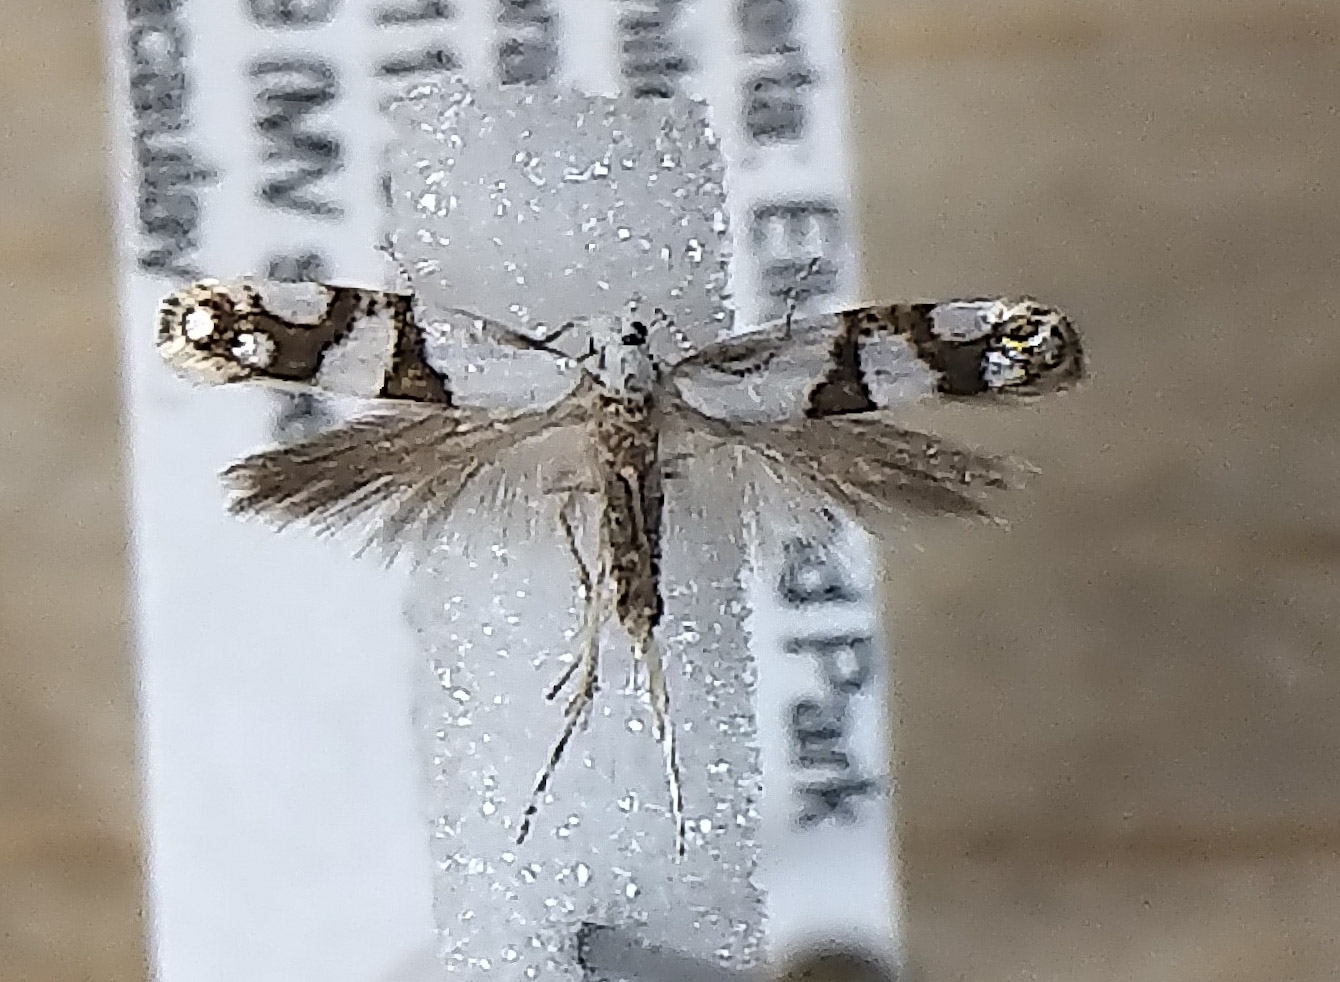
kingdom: Animalia
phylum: Arthropoda
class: Insecta
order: Lepidoptera
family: Argyresthiidae
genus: Argyresthia
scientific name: Argyresthia oreasella
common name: Cherry shoot borer moth
